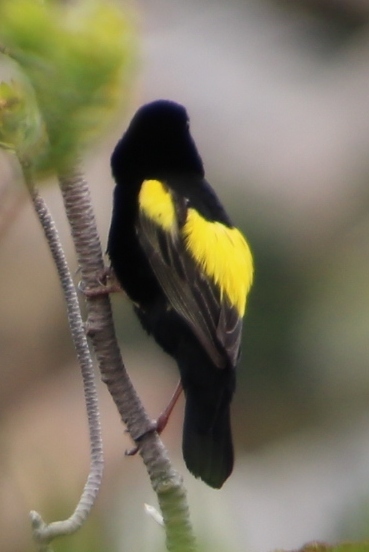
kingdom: Animalia
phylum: Chordata
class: Aves
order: Passeriformes
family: Ploceidae
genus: Euplectes
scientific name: Euplectes capensis
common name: Yellow bishop
